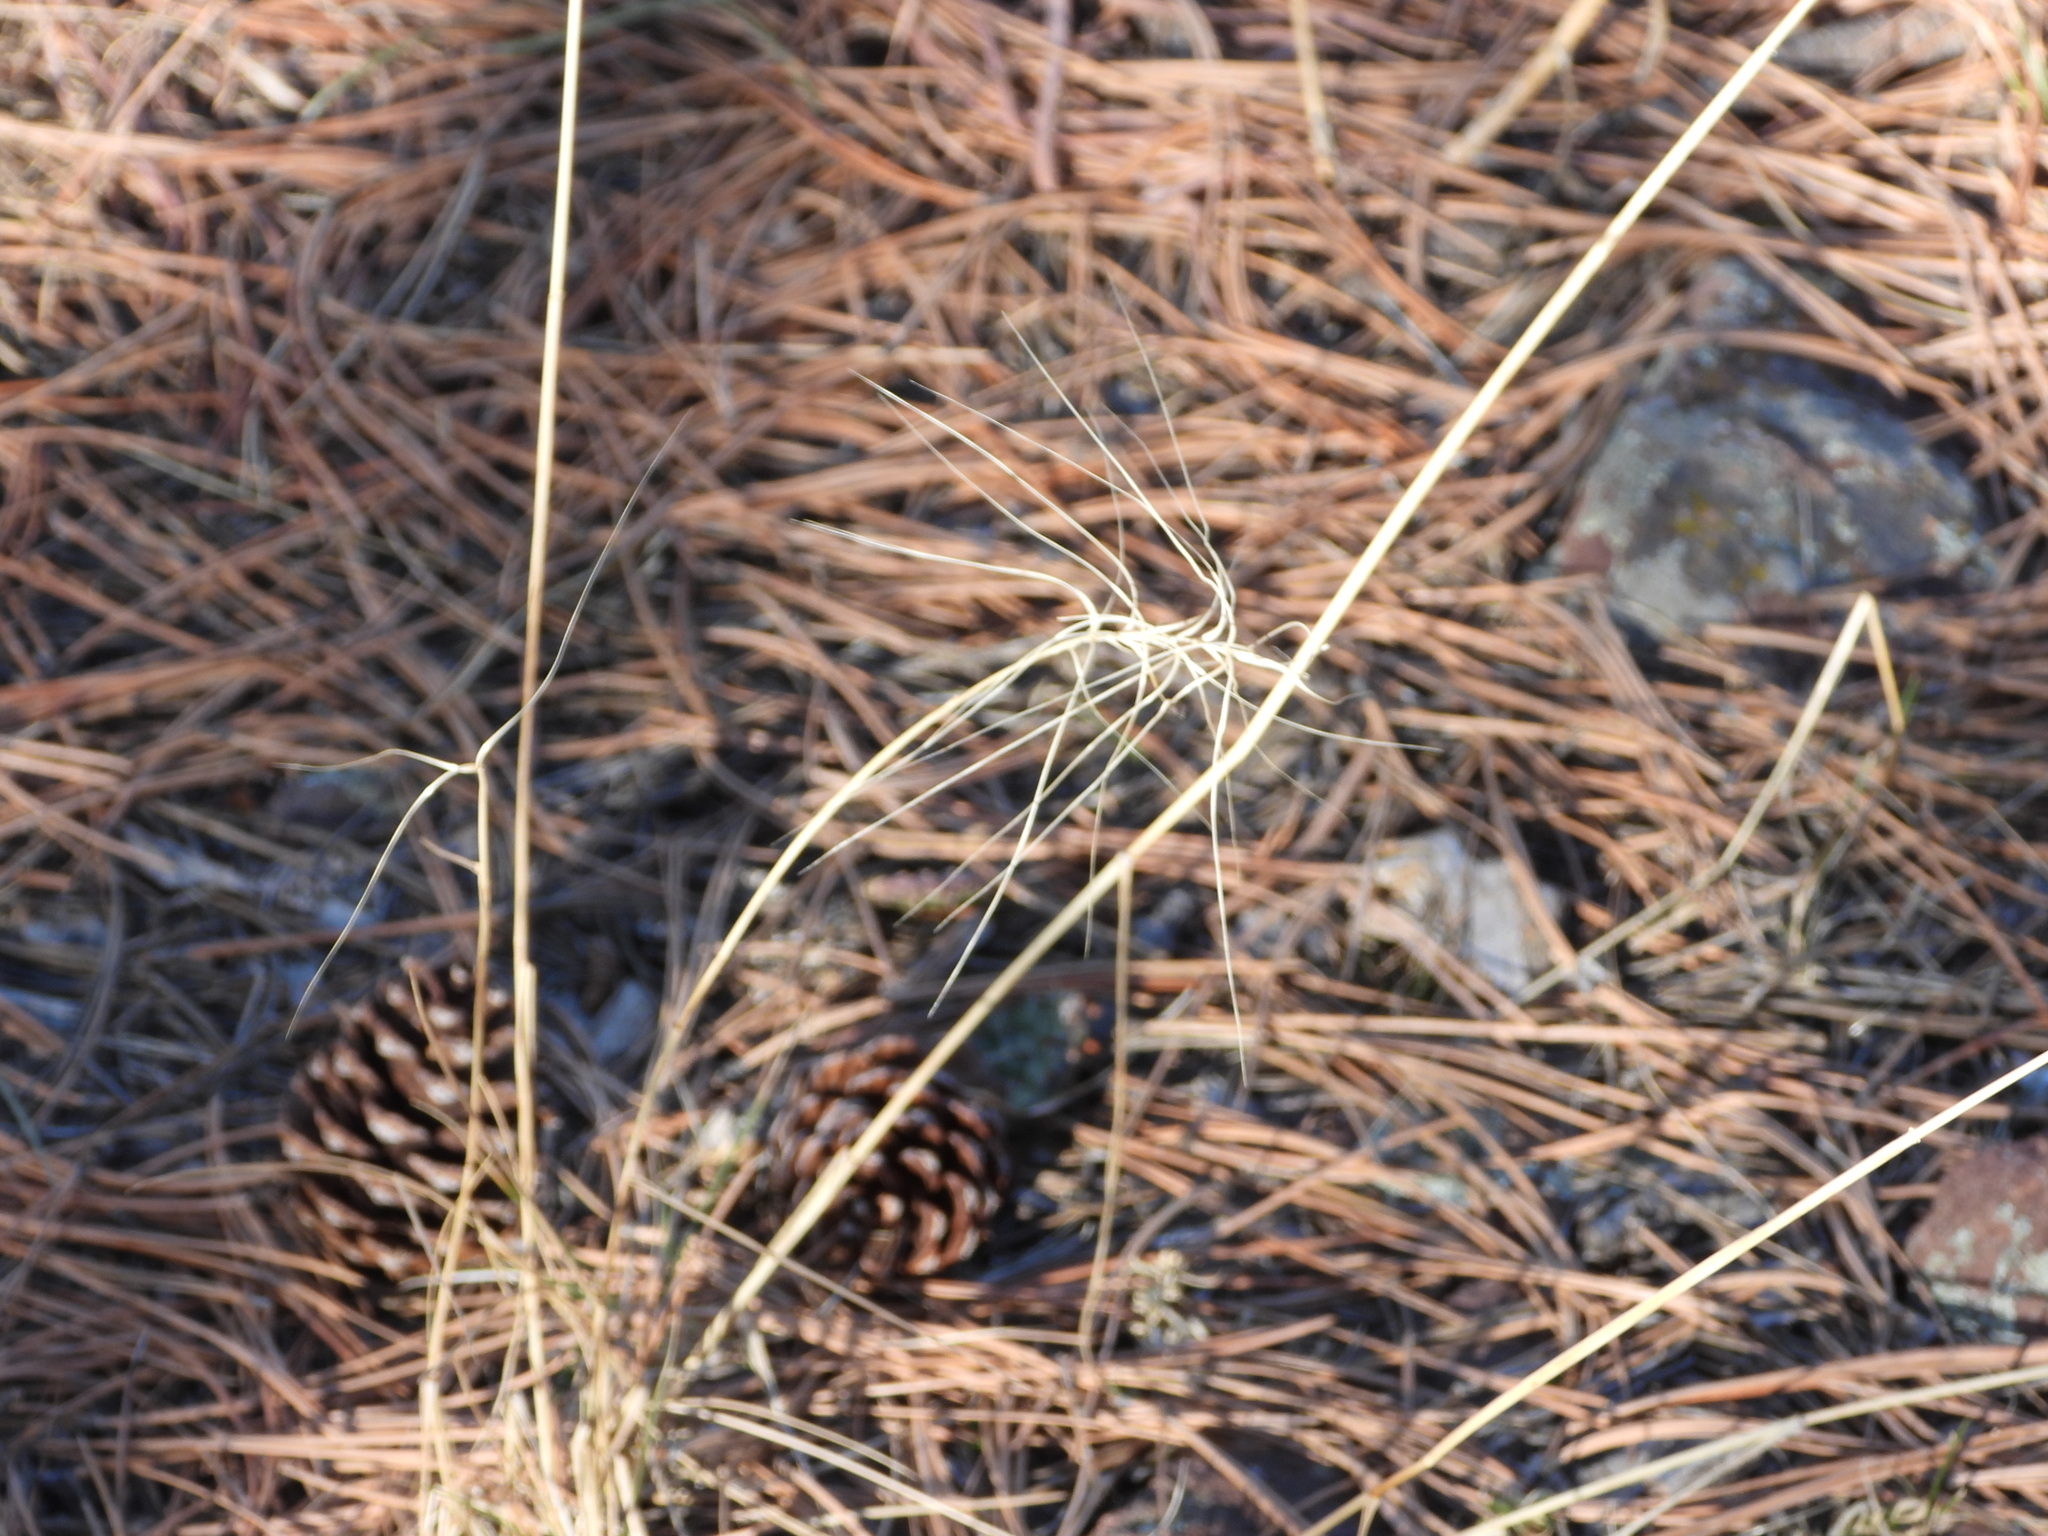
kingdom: Plantae
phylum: Tracheophyta
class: Liliopsida
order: Poales
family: Poaceae
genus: Elymus
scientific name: Elymus elymoides
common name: Bottlebrush squirreltail
